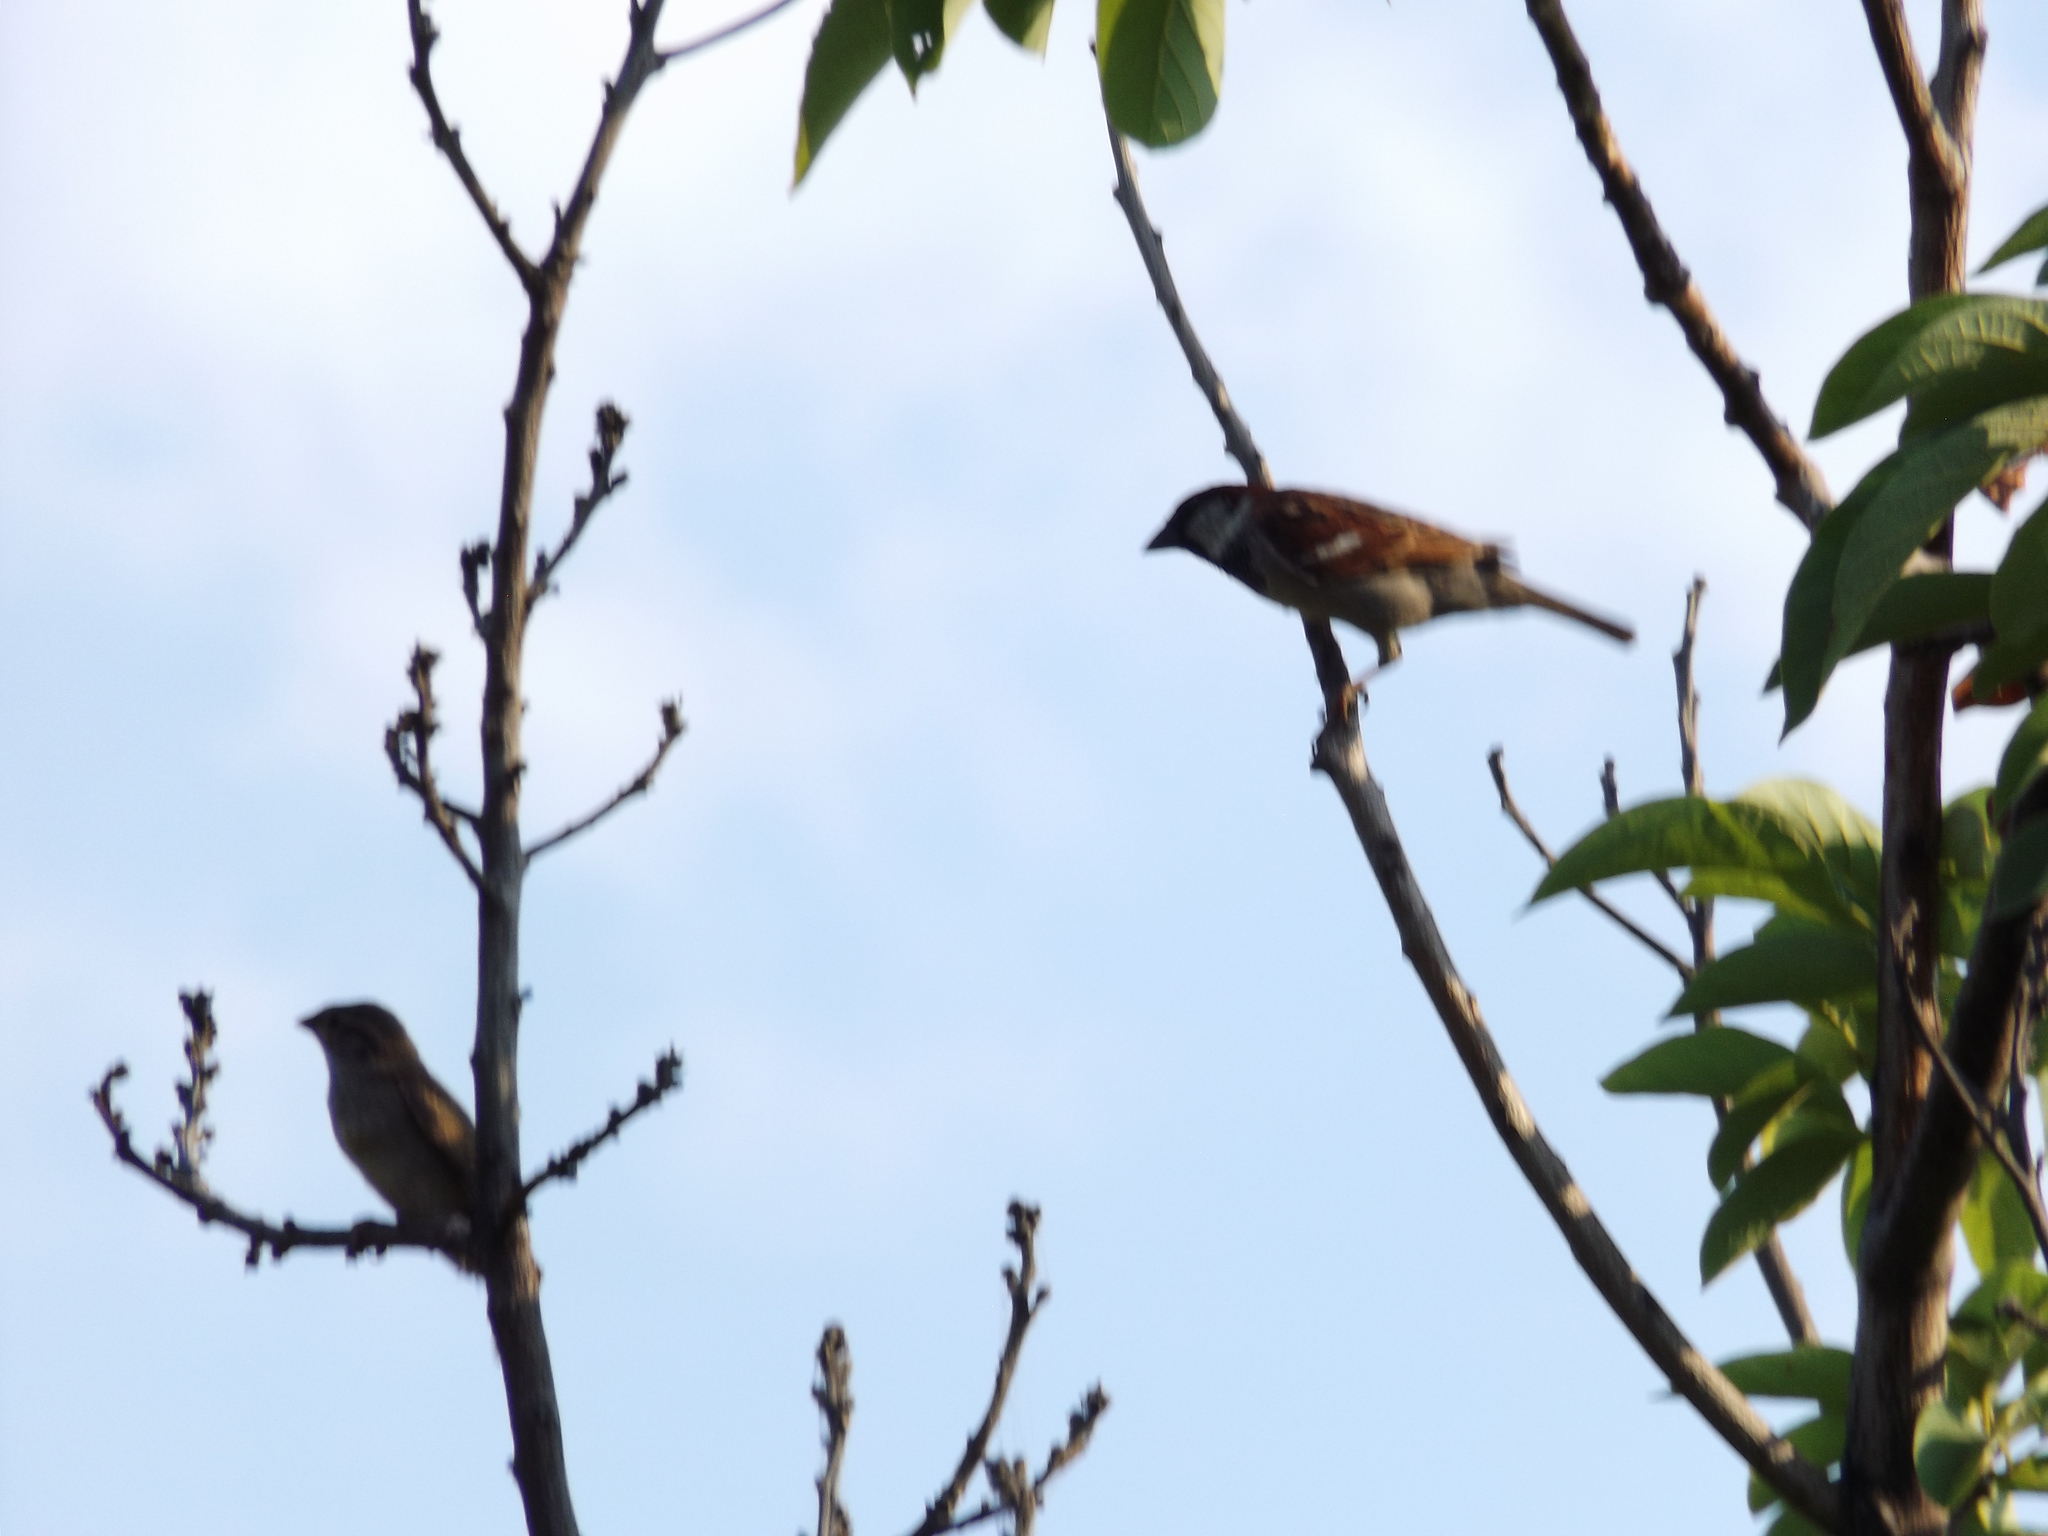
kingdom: Animalia
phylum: Chordata
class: Aves
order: Passeriformes
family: Passeridae
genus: Passer
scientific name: Passer domesticus
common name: House sparrow
